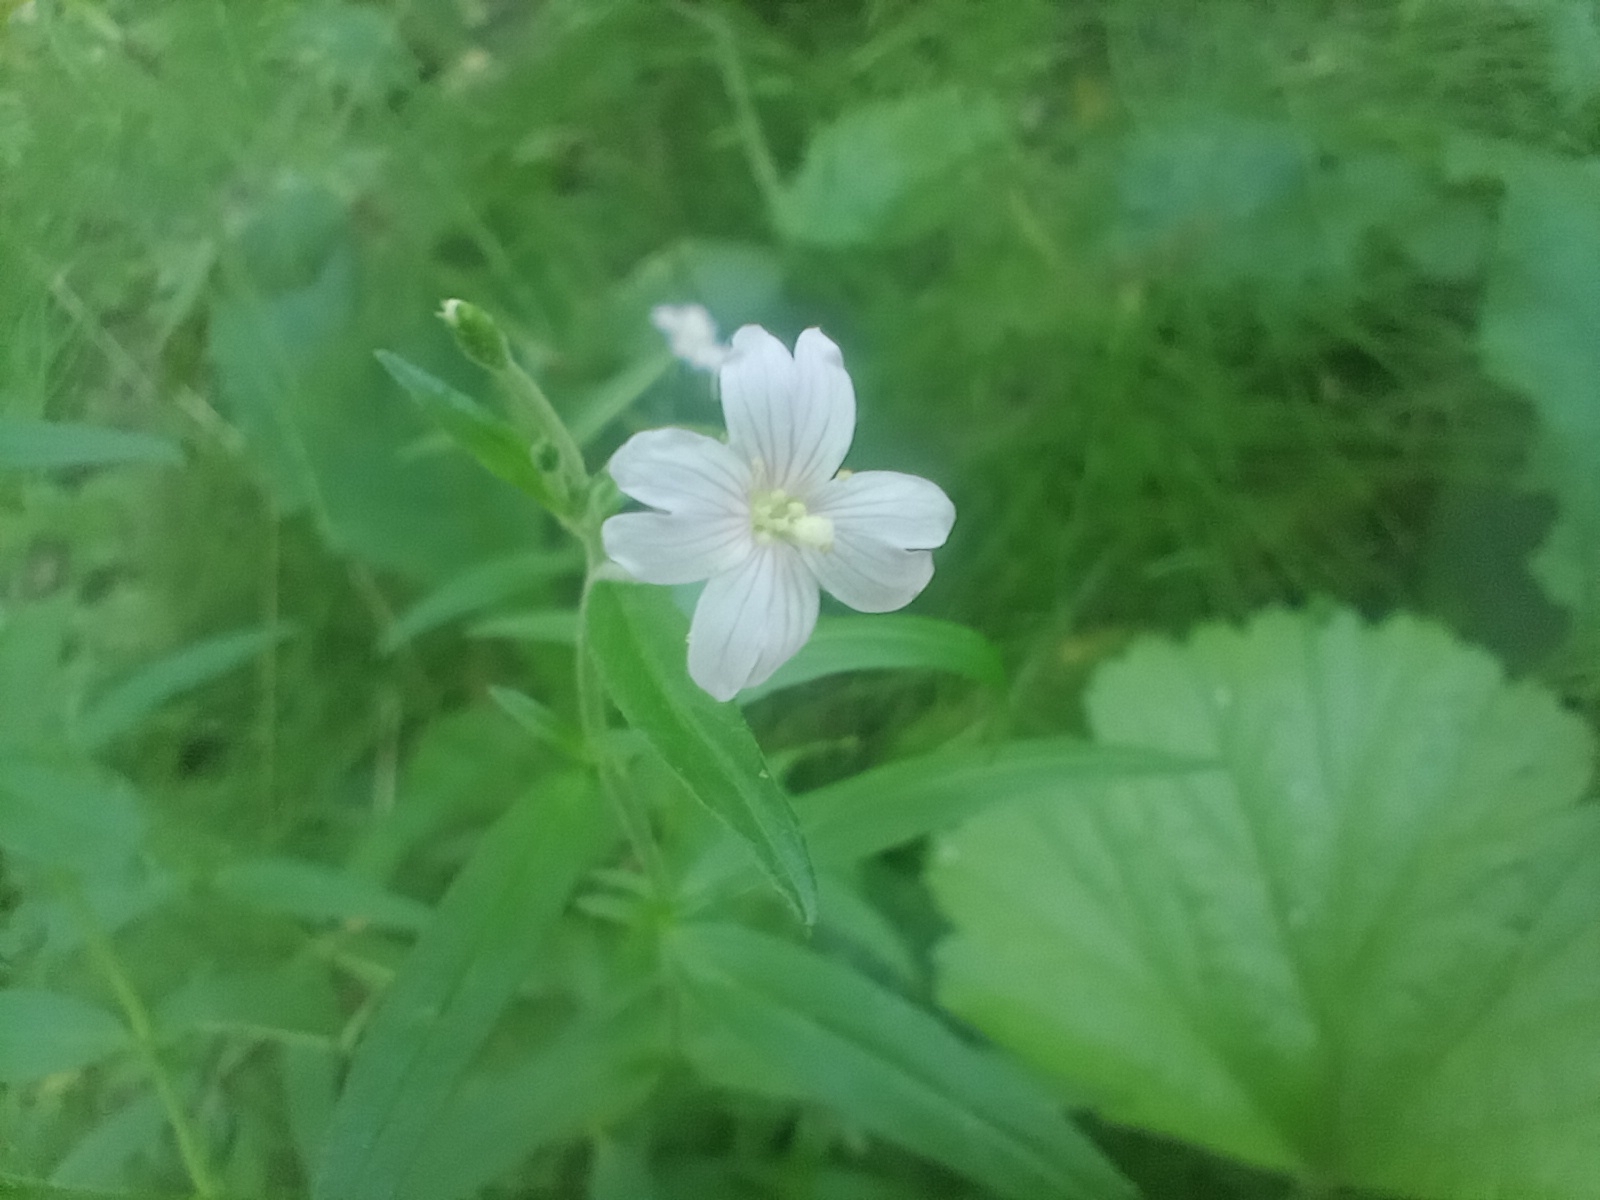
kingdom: Plantae
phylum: Tracheophyta
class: Magnoliopsida
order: Myrtales
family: Onagraceae
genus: Epilobium
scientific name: Epilobium palustre
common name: Marsh willowherb
